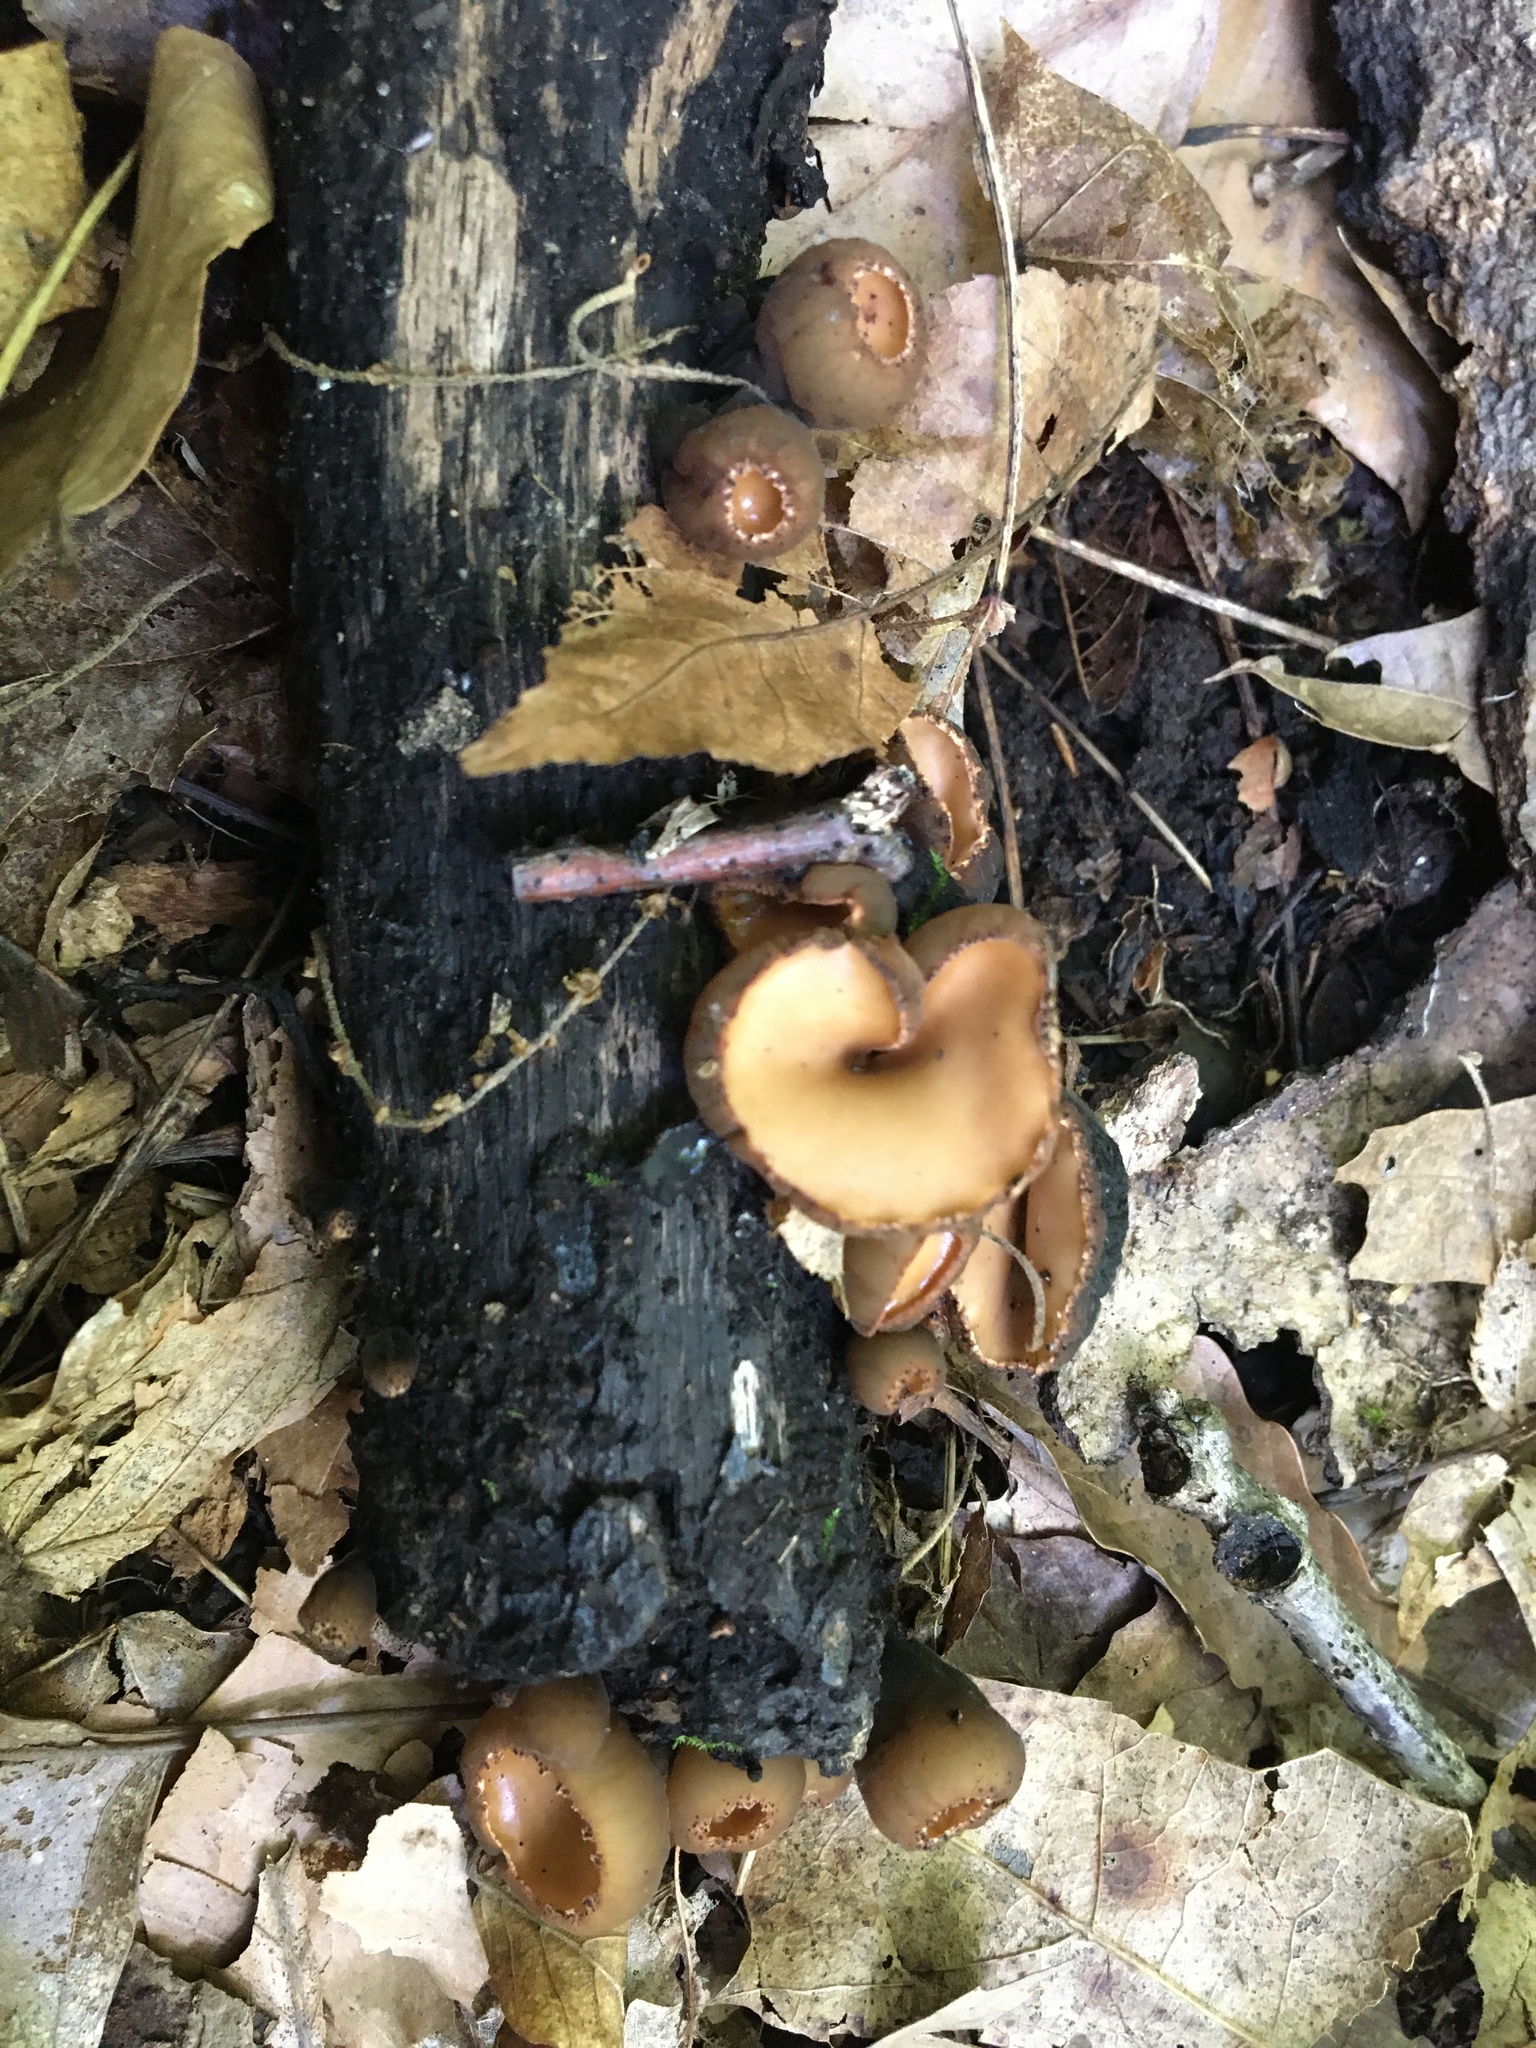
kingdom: Fungi
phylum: Ascomycota
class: Pezizomycetes
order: Pezizales
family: Sarcosomataceae
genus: Galiella
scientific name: Galiella rufa
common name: Hairy rubber cup
